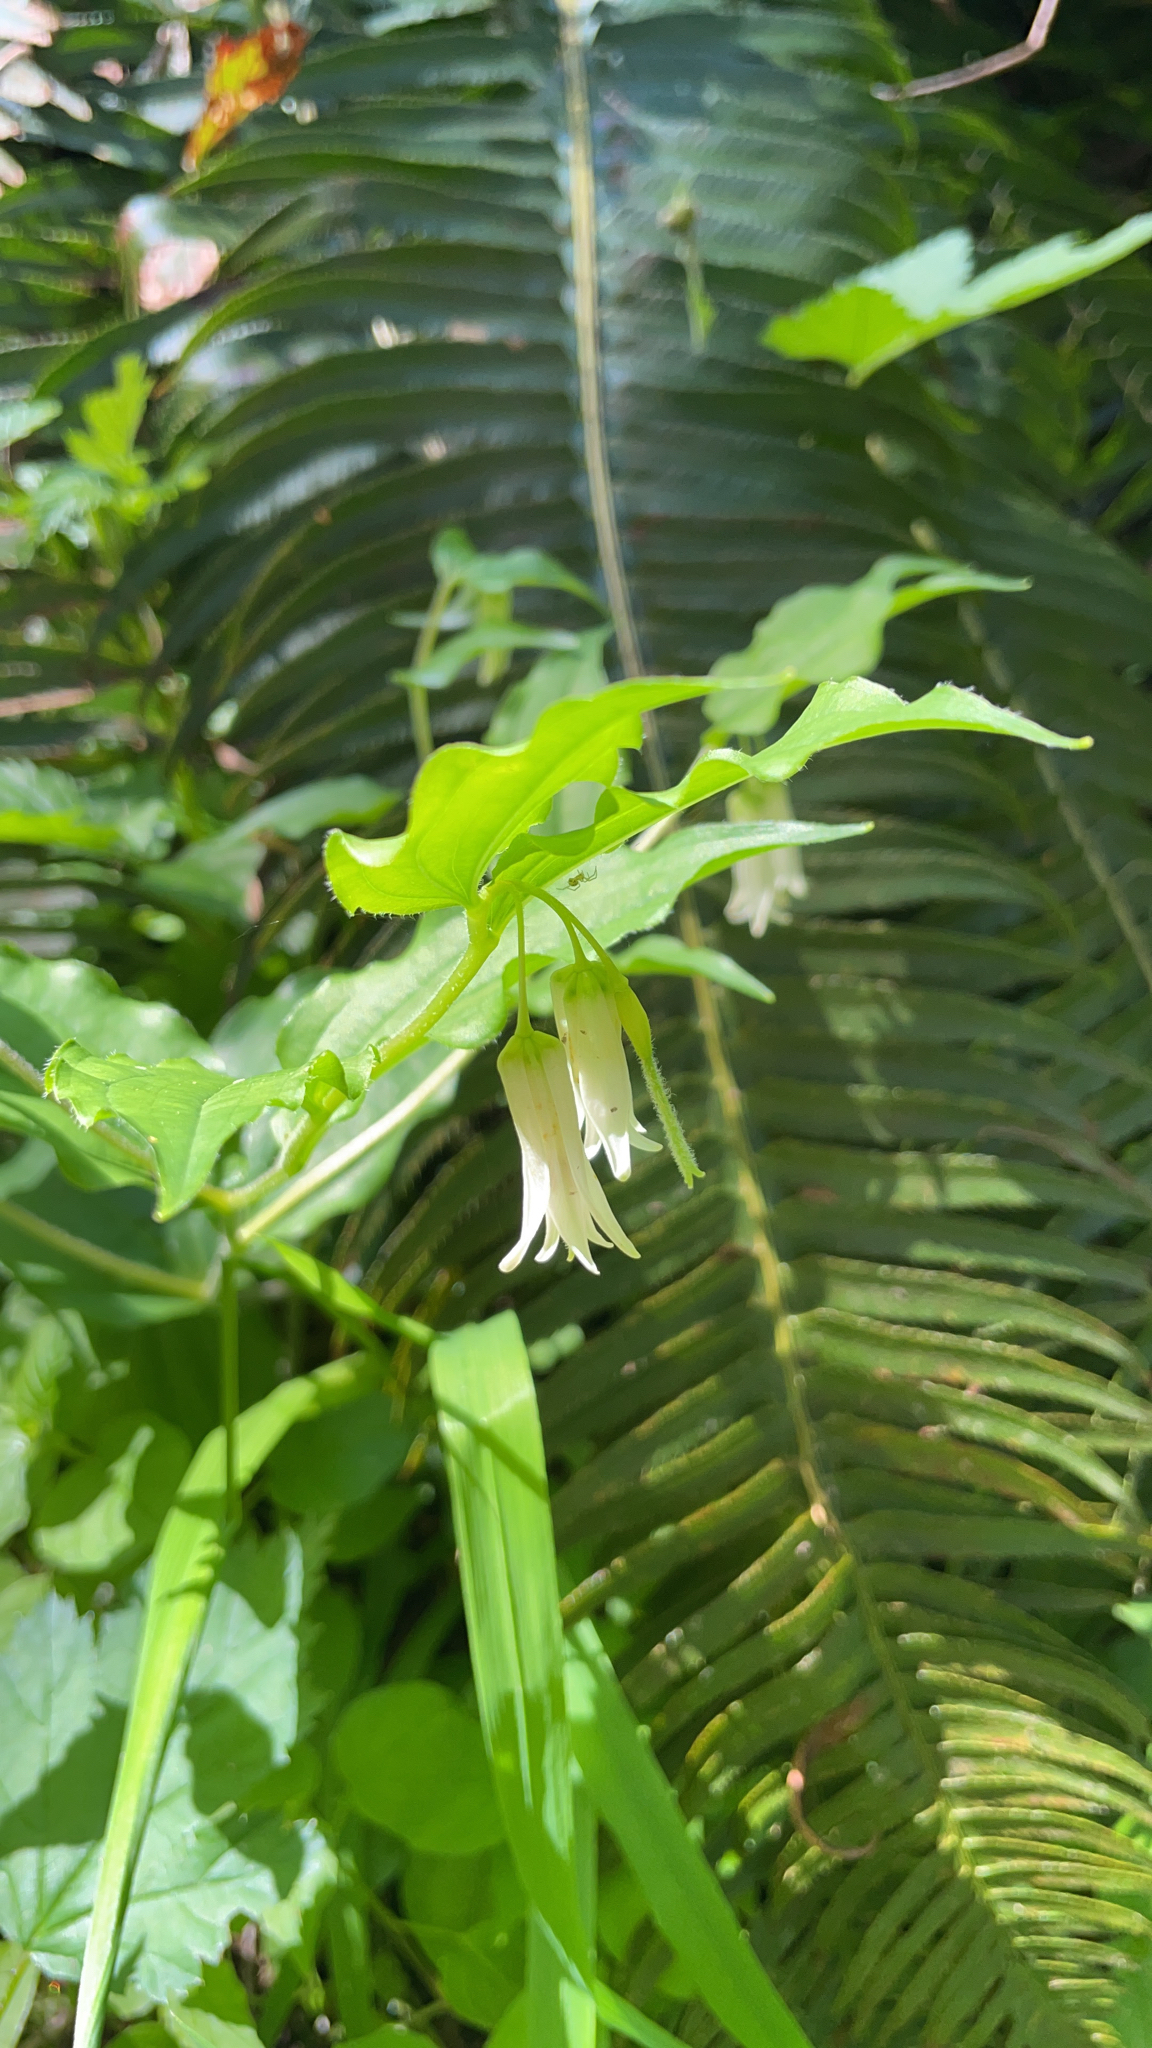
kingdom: Plantae
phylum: Tracheophyta
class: Liliopsida
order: Liliales
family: Liliaceae
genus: Prosartes
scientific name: Prosartes smithii
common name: Fairy-lantern
